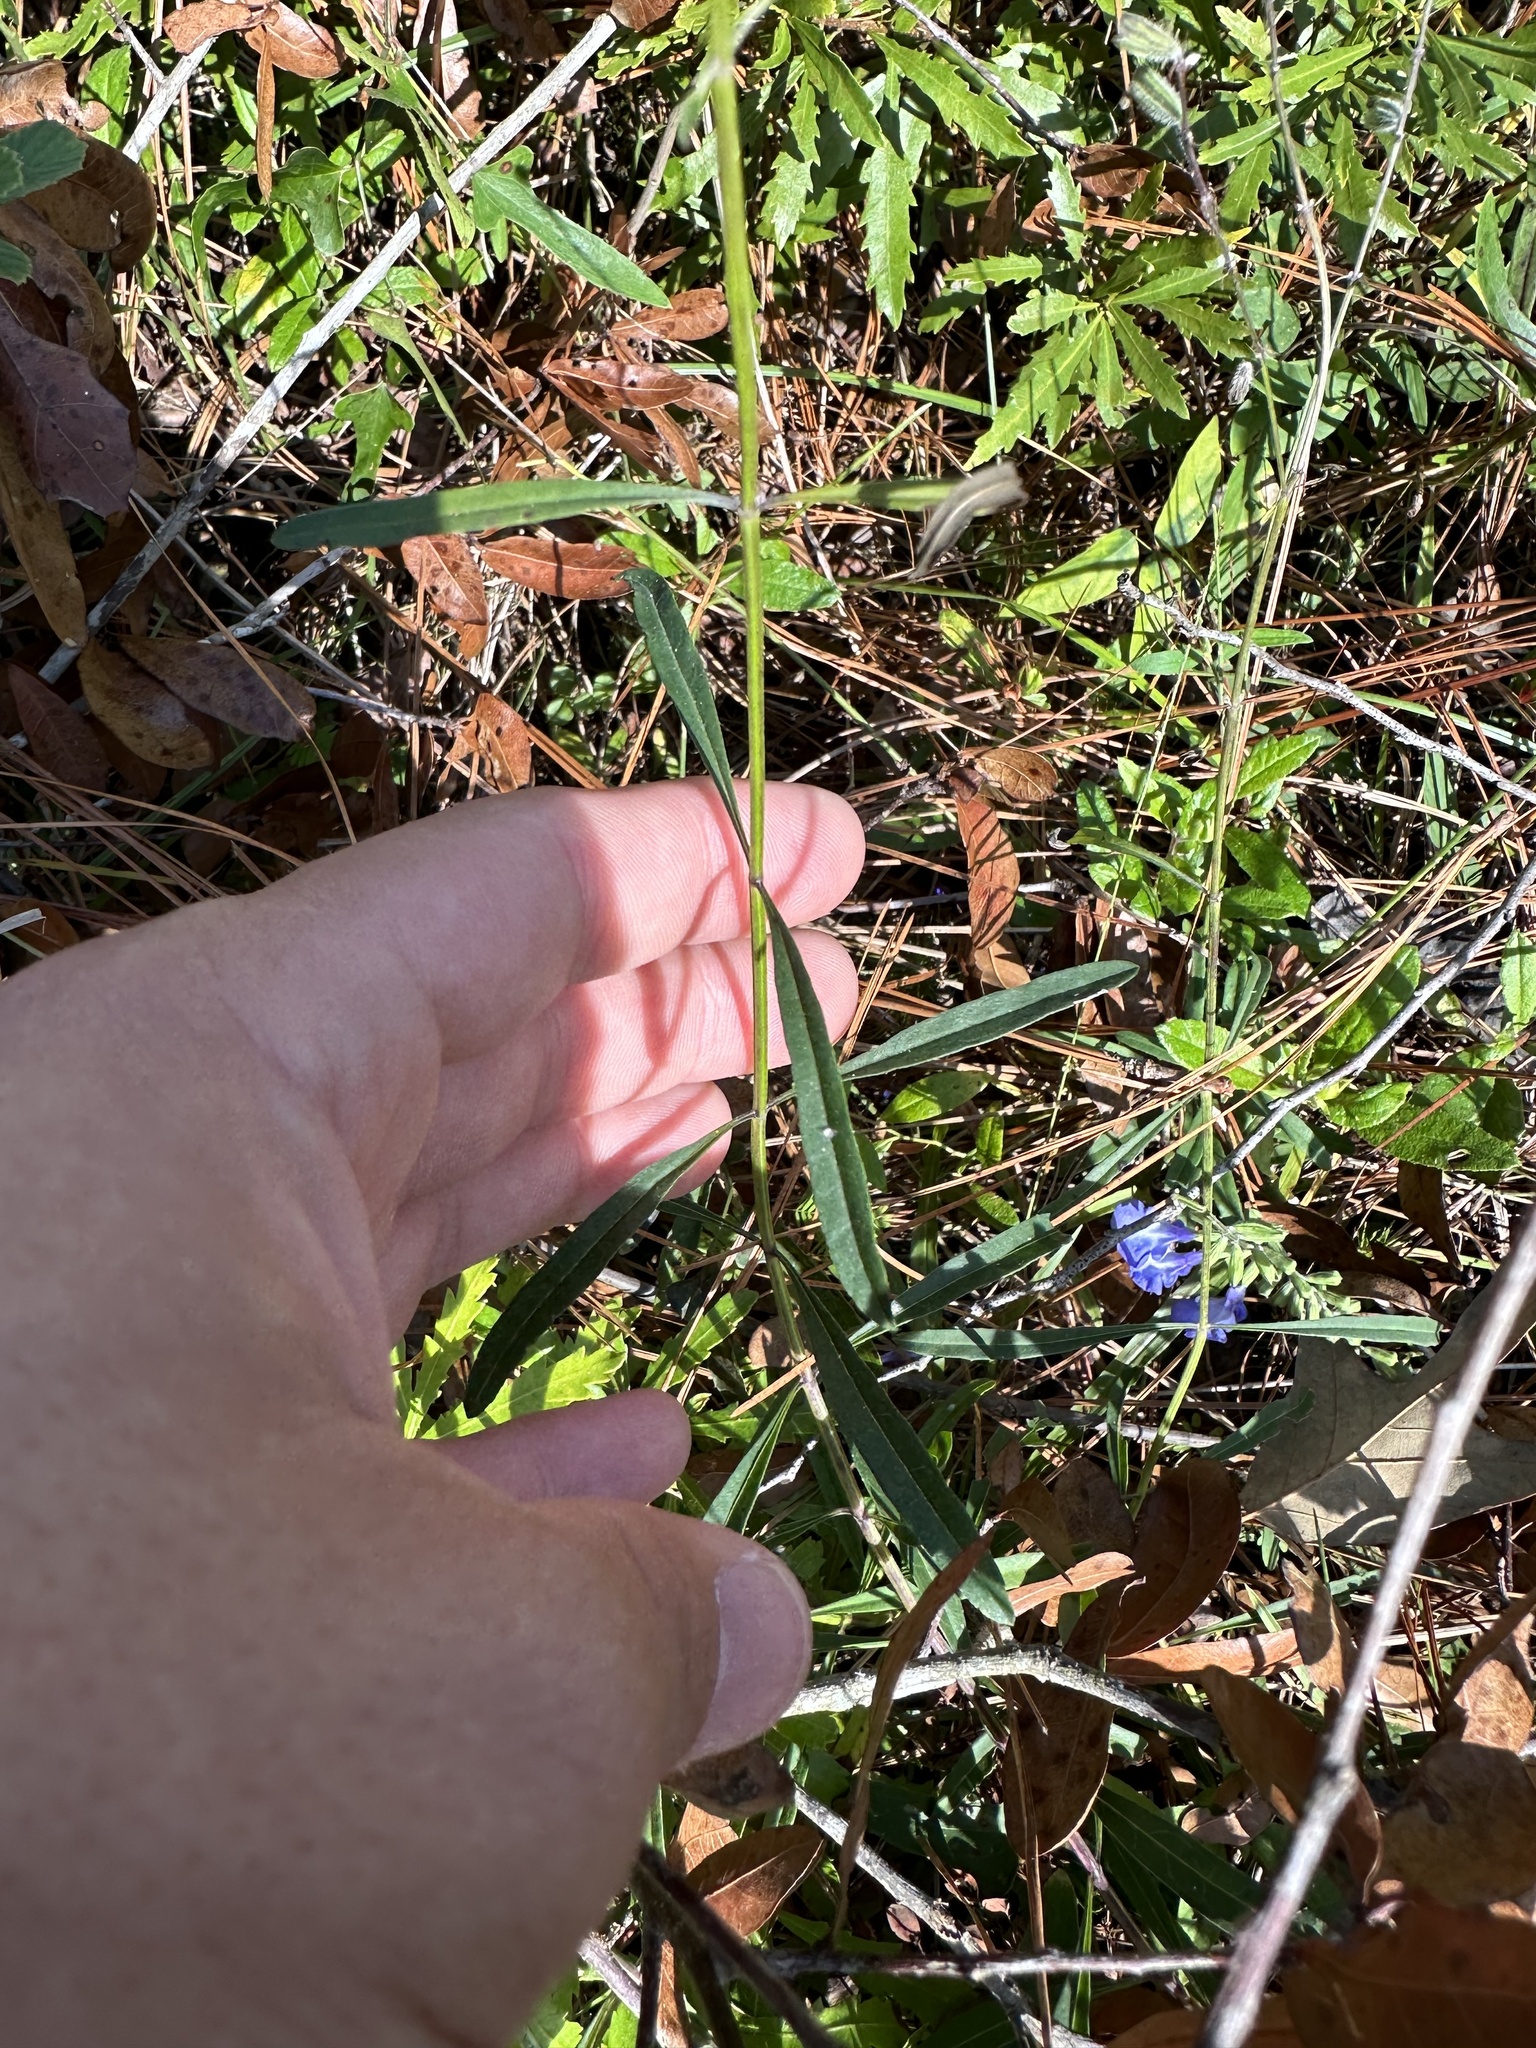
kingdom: Plantae
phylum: Tracheophyta
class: Magnoliopsida
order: Lamiales
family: Lamiaceae
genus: Salvia
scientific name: Salvia azurea
